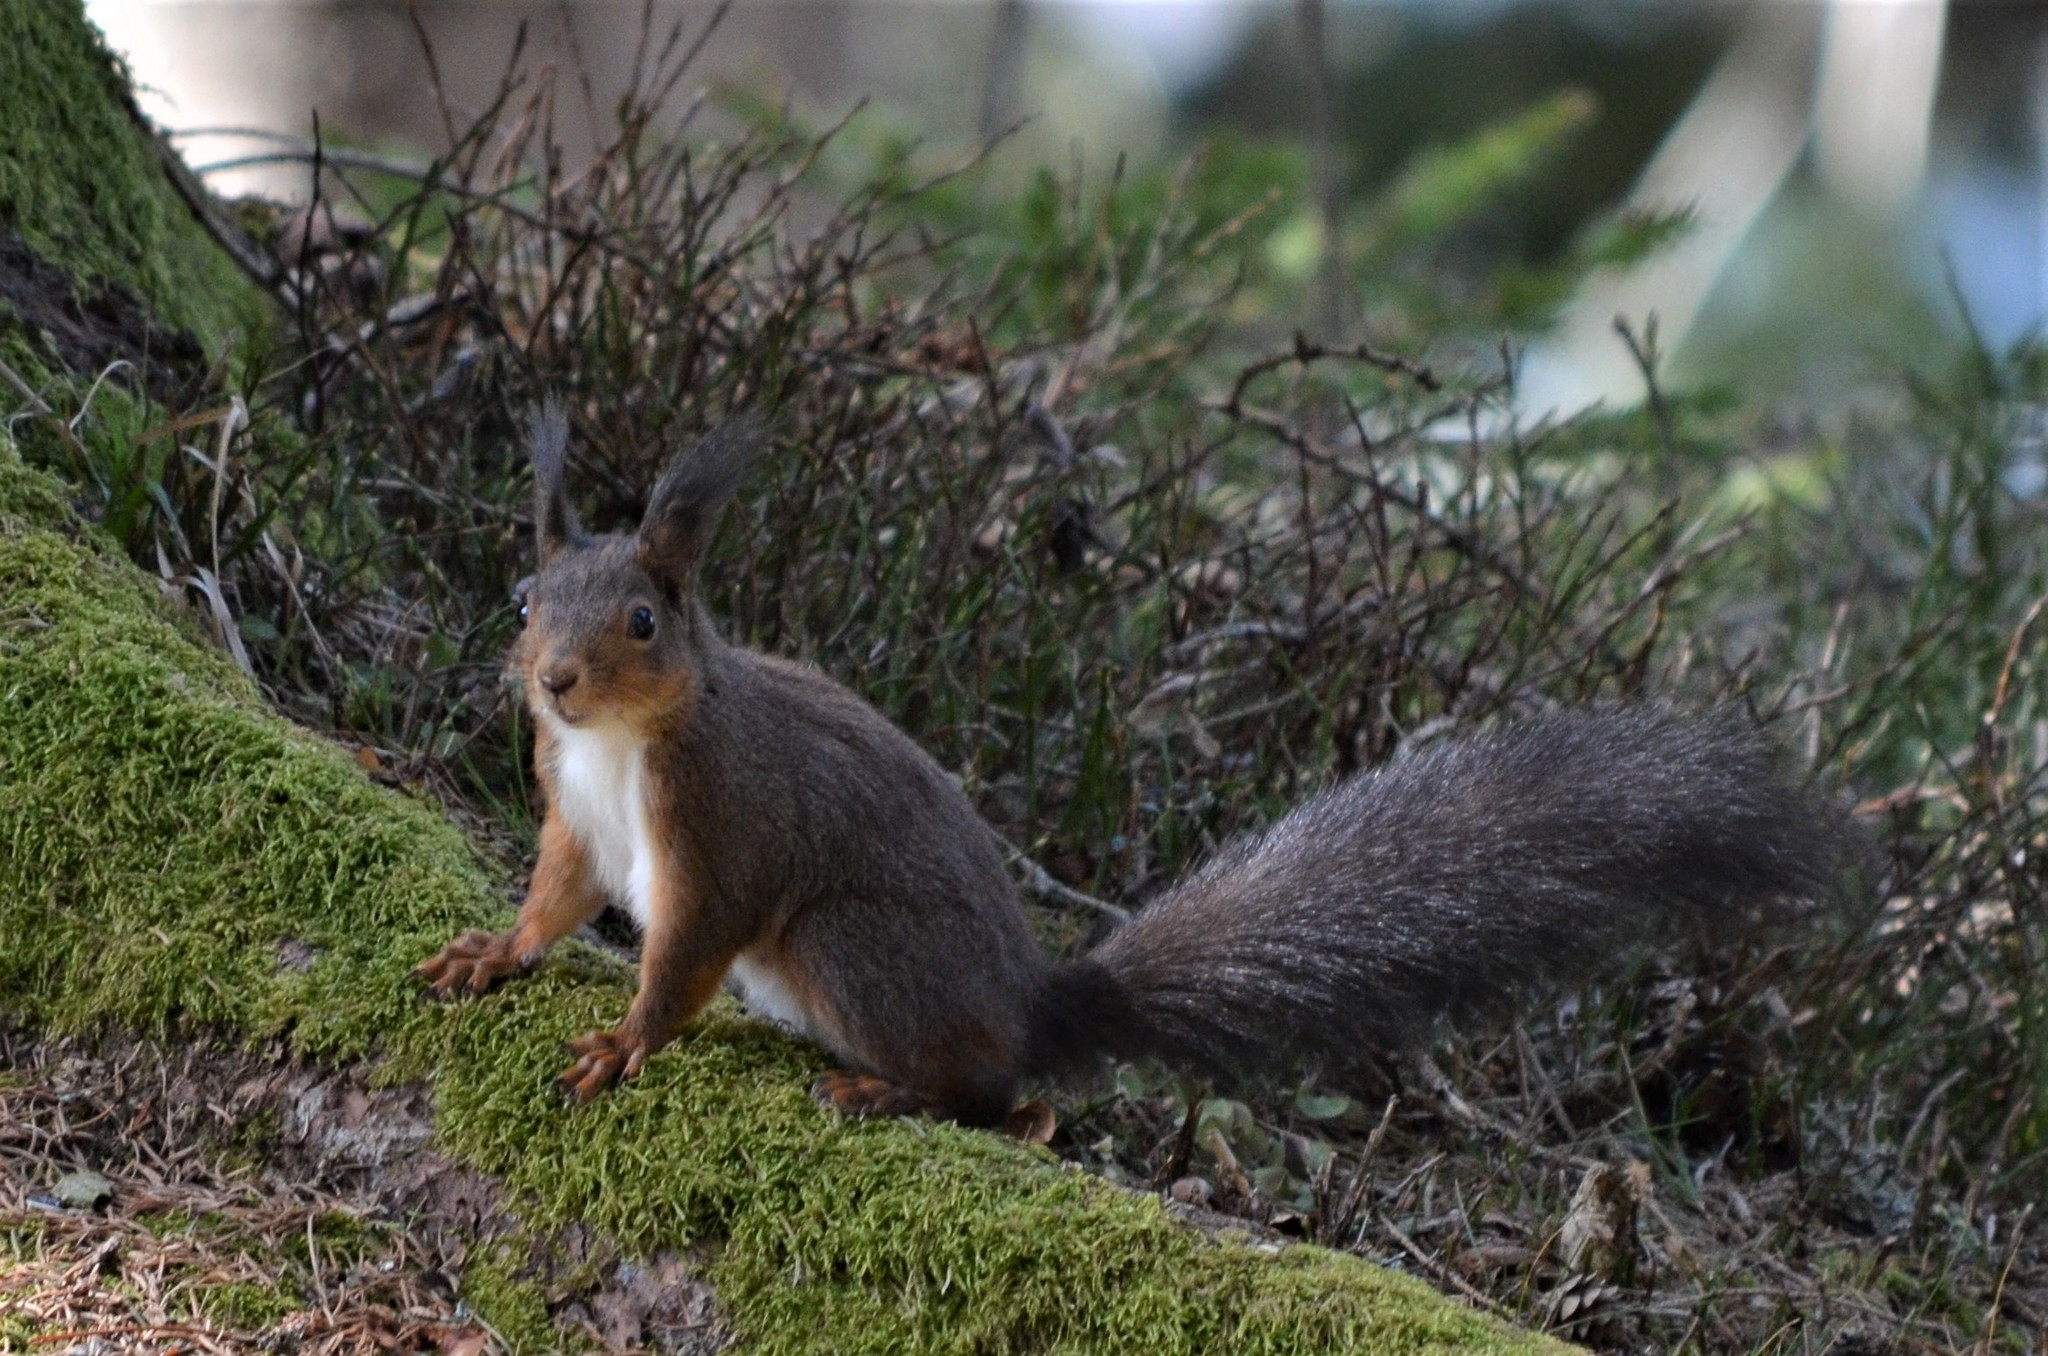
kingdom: Animalia
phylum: Chordata
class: Mammalia
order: Rodentia
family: Sciuridae
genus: Sciurus
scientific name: Sciurus vulgaris
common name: Eurasian red squirrel
